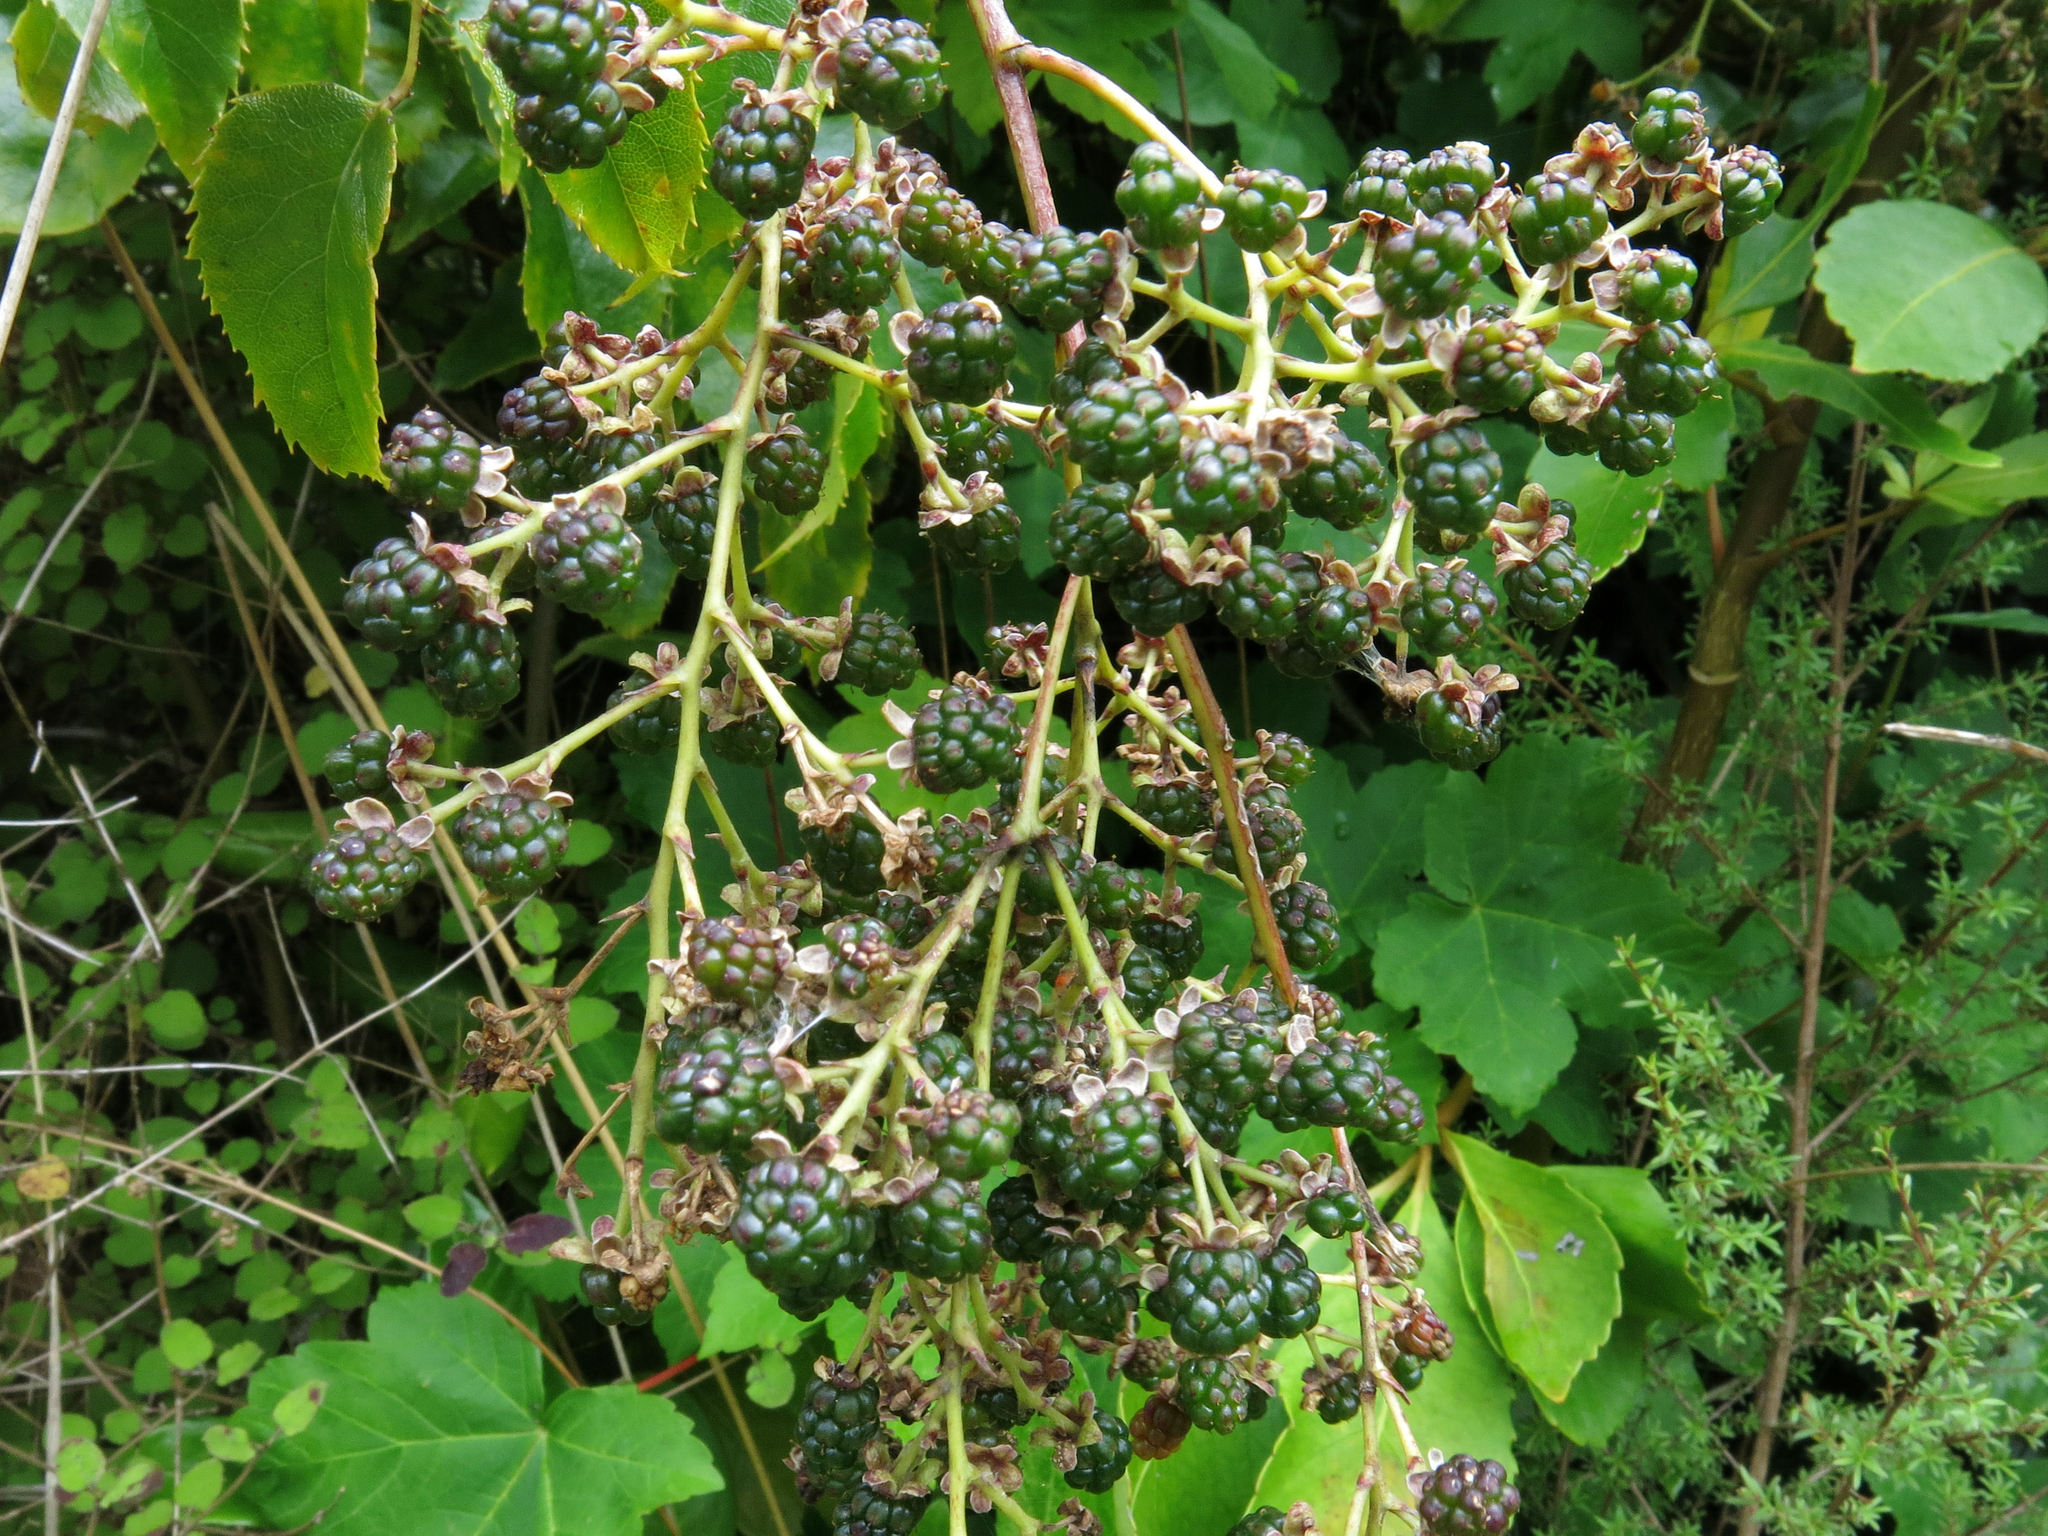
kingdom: Plantae
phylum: Tracheophyta
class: Magnoliopsida
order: Rosales
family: Rosaceae
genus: Rubus
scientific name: Rubus cissoides
